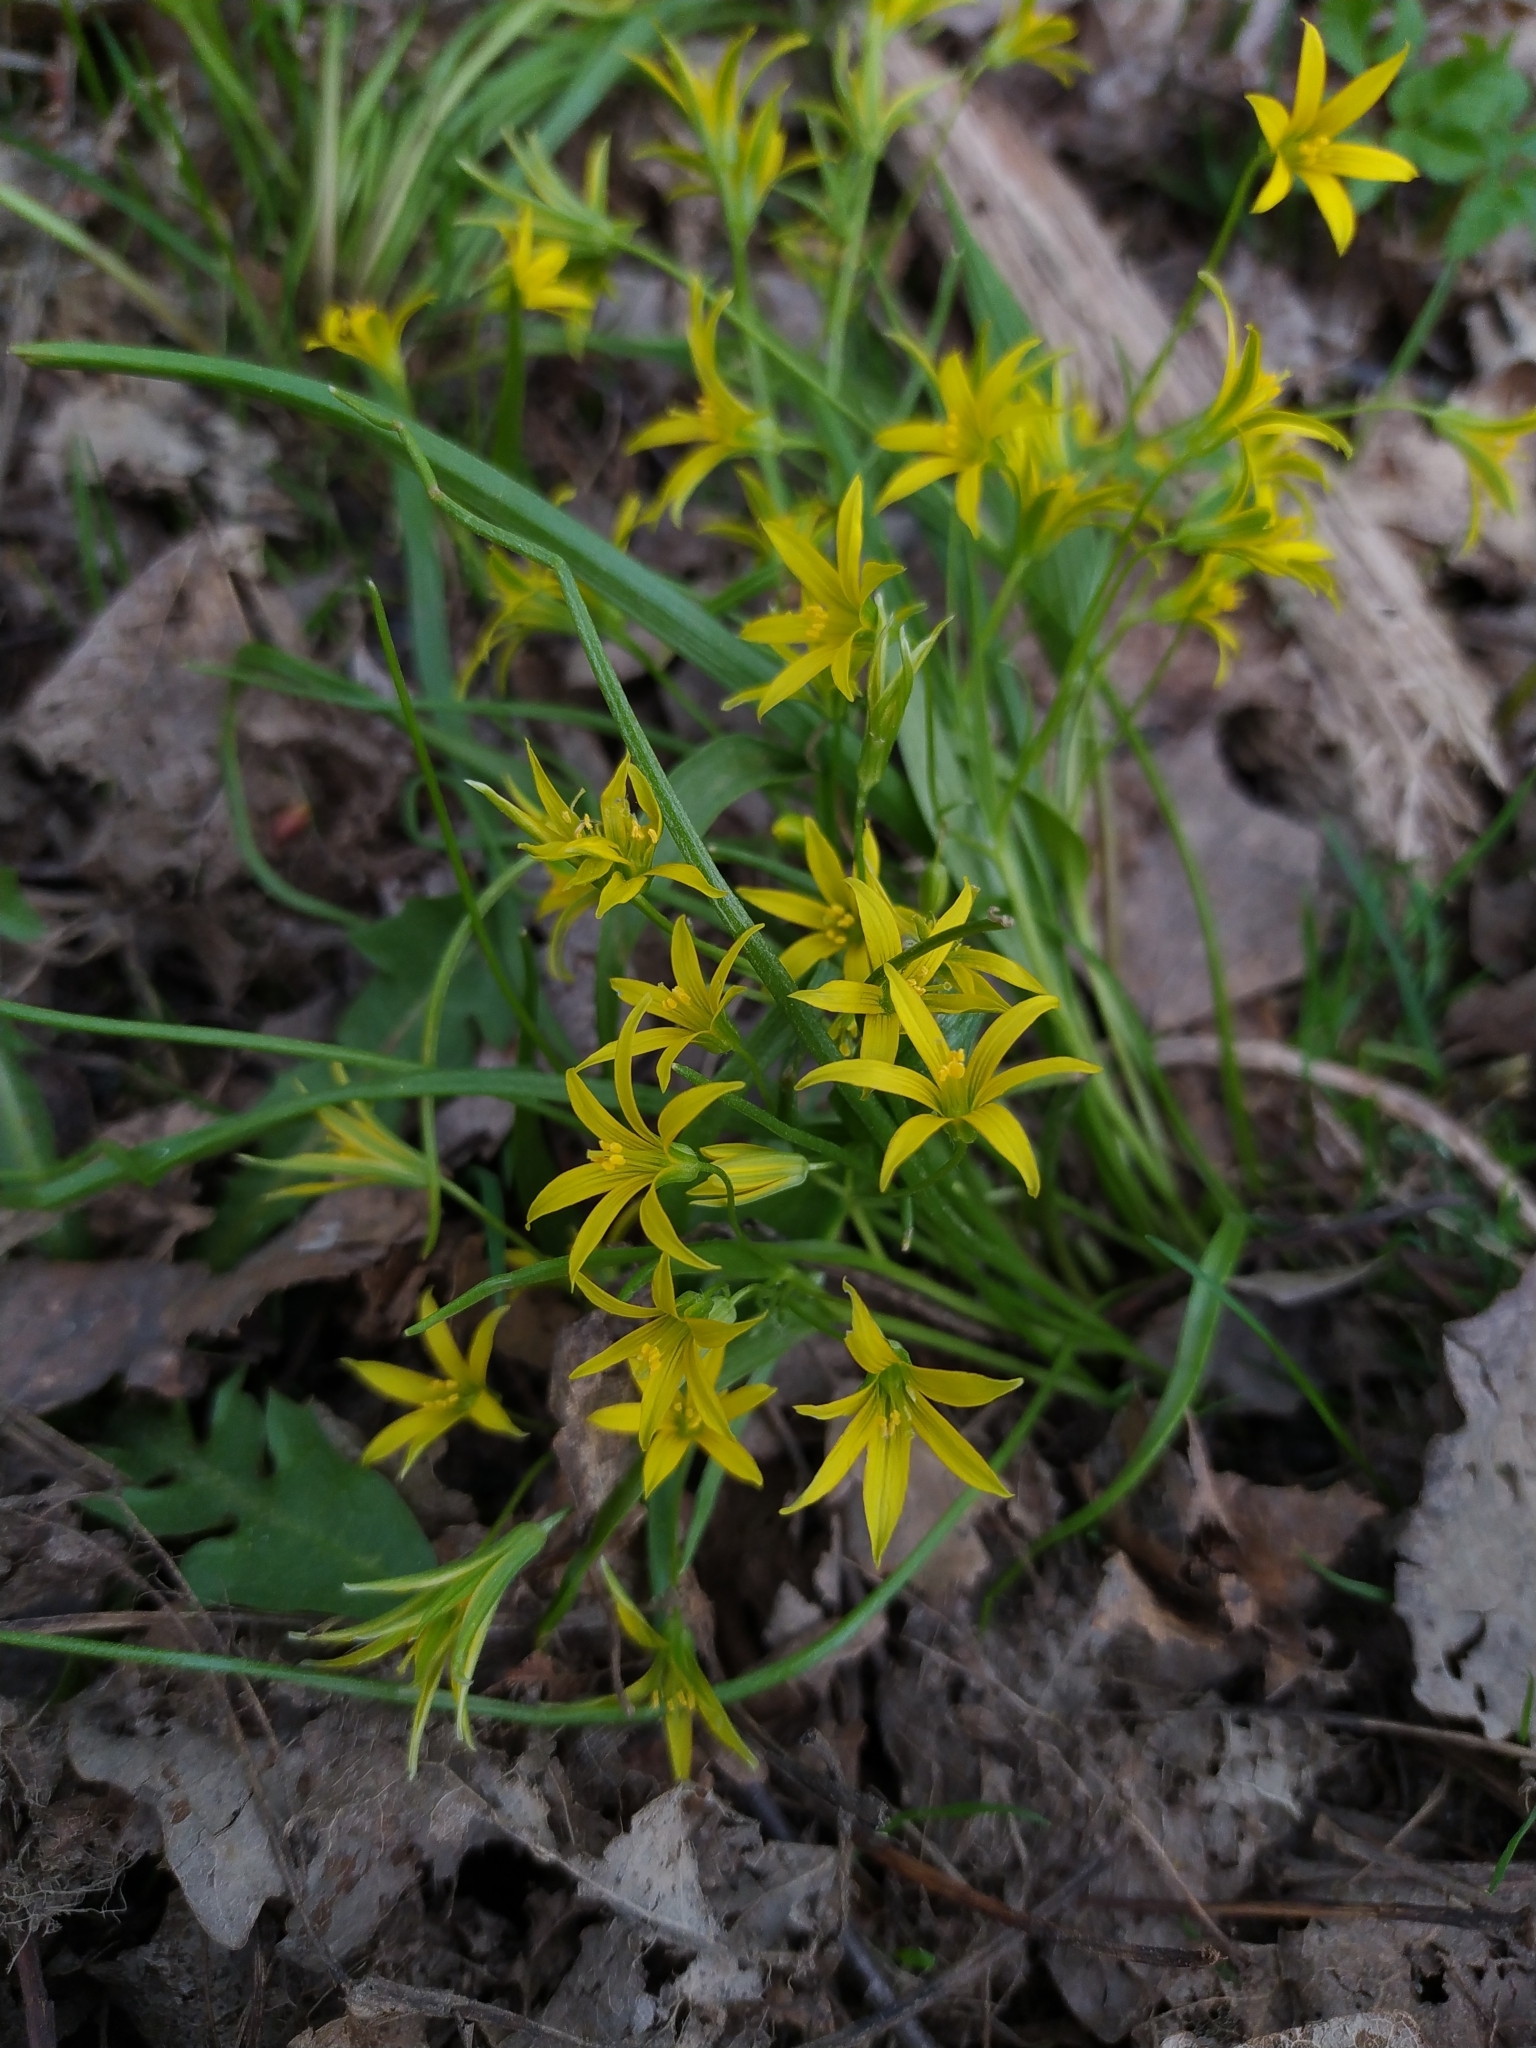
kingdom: Plantae
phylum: Tracheophyta
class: Liliopsida
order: Liliales
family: Liliaceae
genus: Gagea
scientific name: Gagea minima
